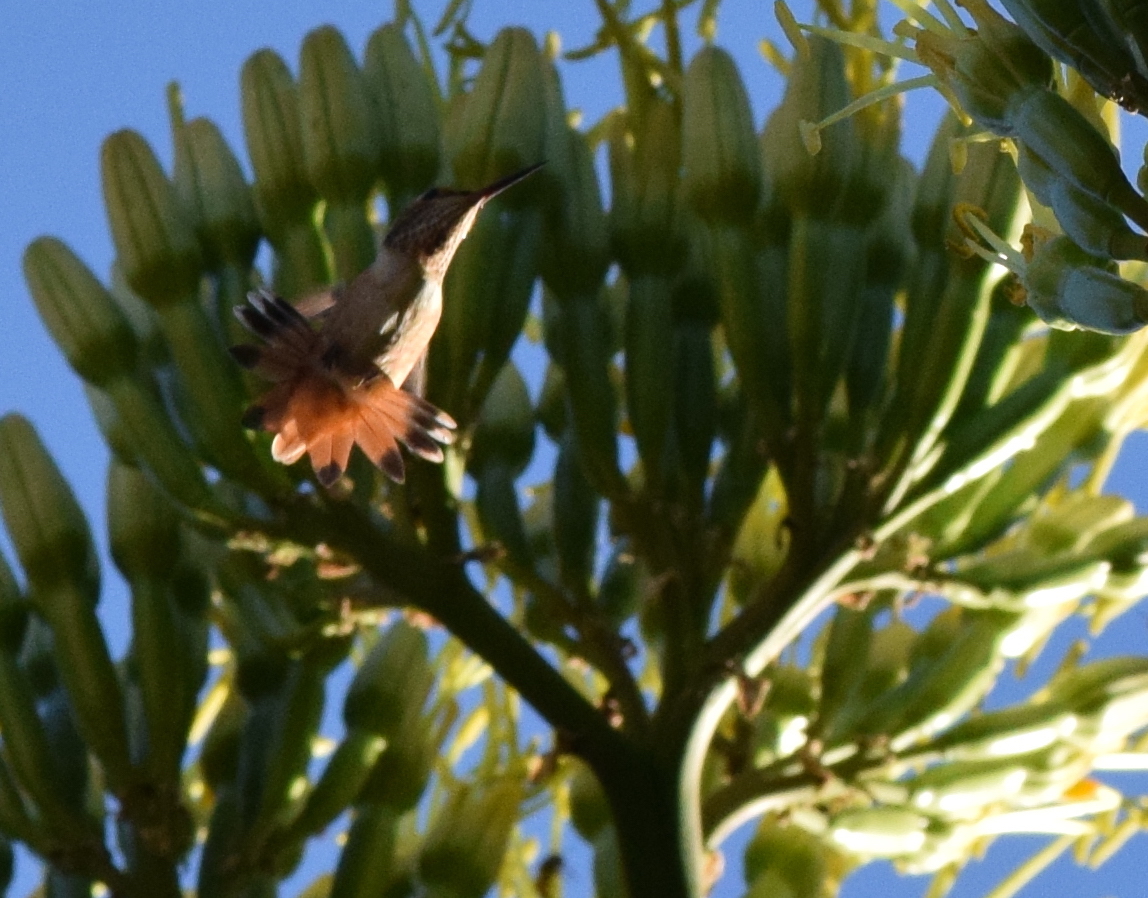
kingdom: Animalia
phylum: Chordata
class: Aves
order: Apodiformes
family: Trochilidae
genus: Selasphorus
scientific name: Selasphorus sasin
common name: Allen's hummingbird
